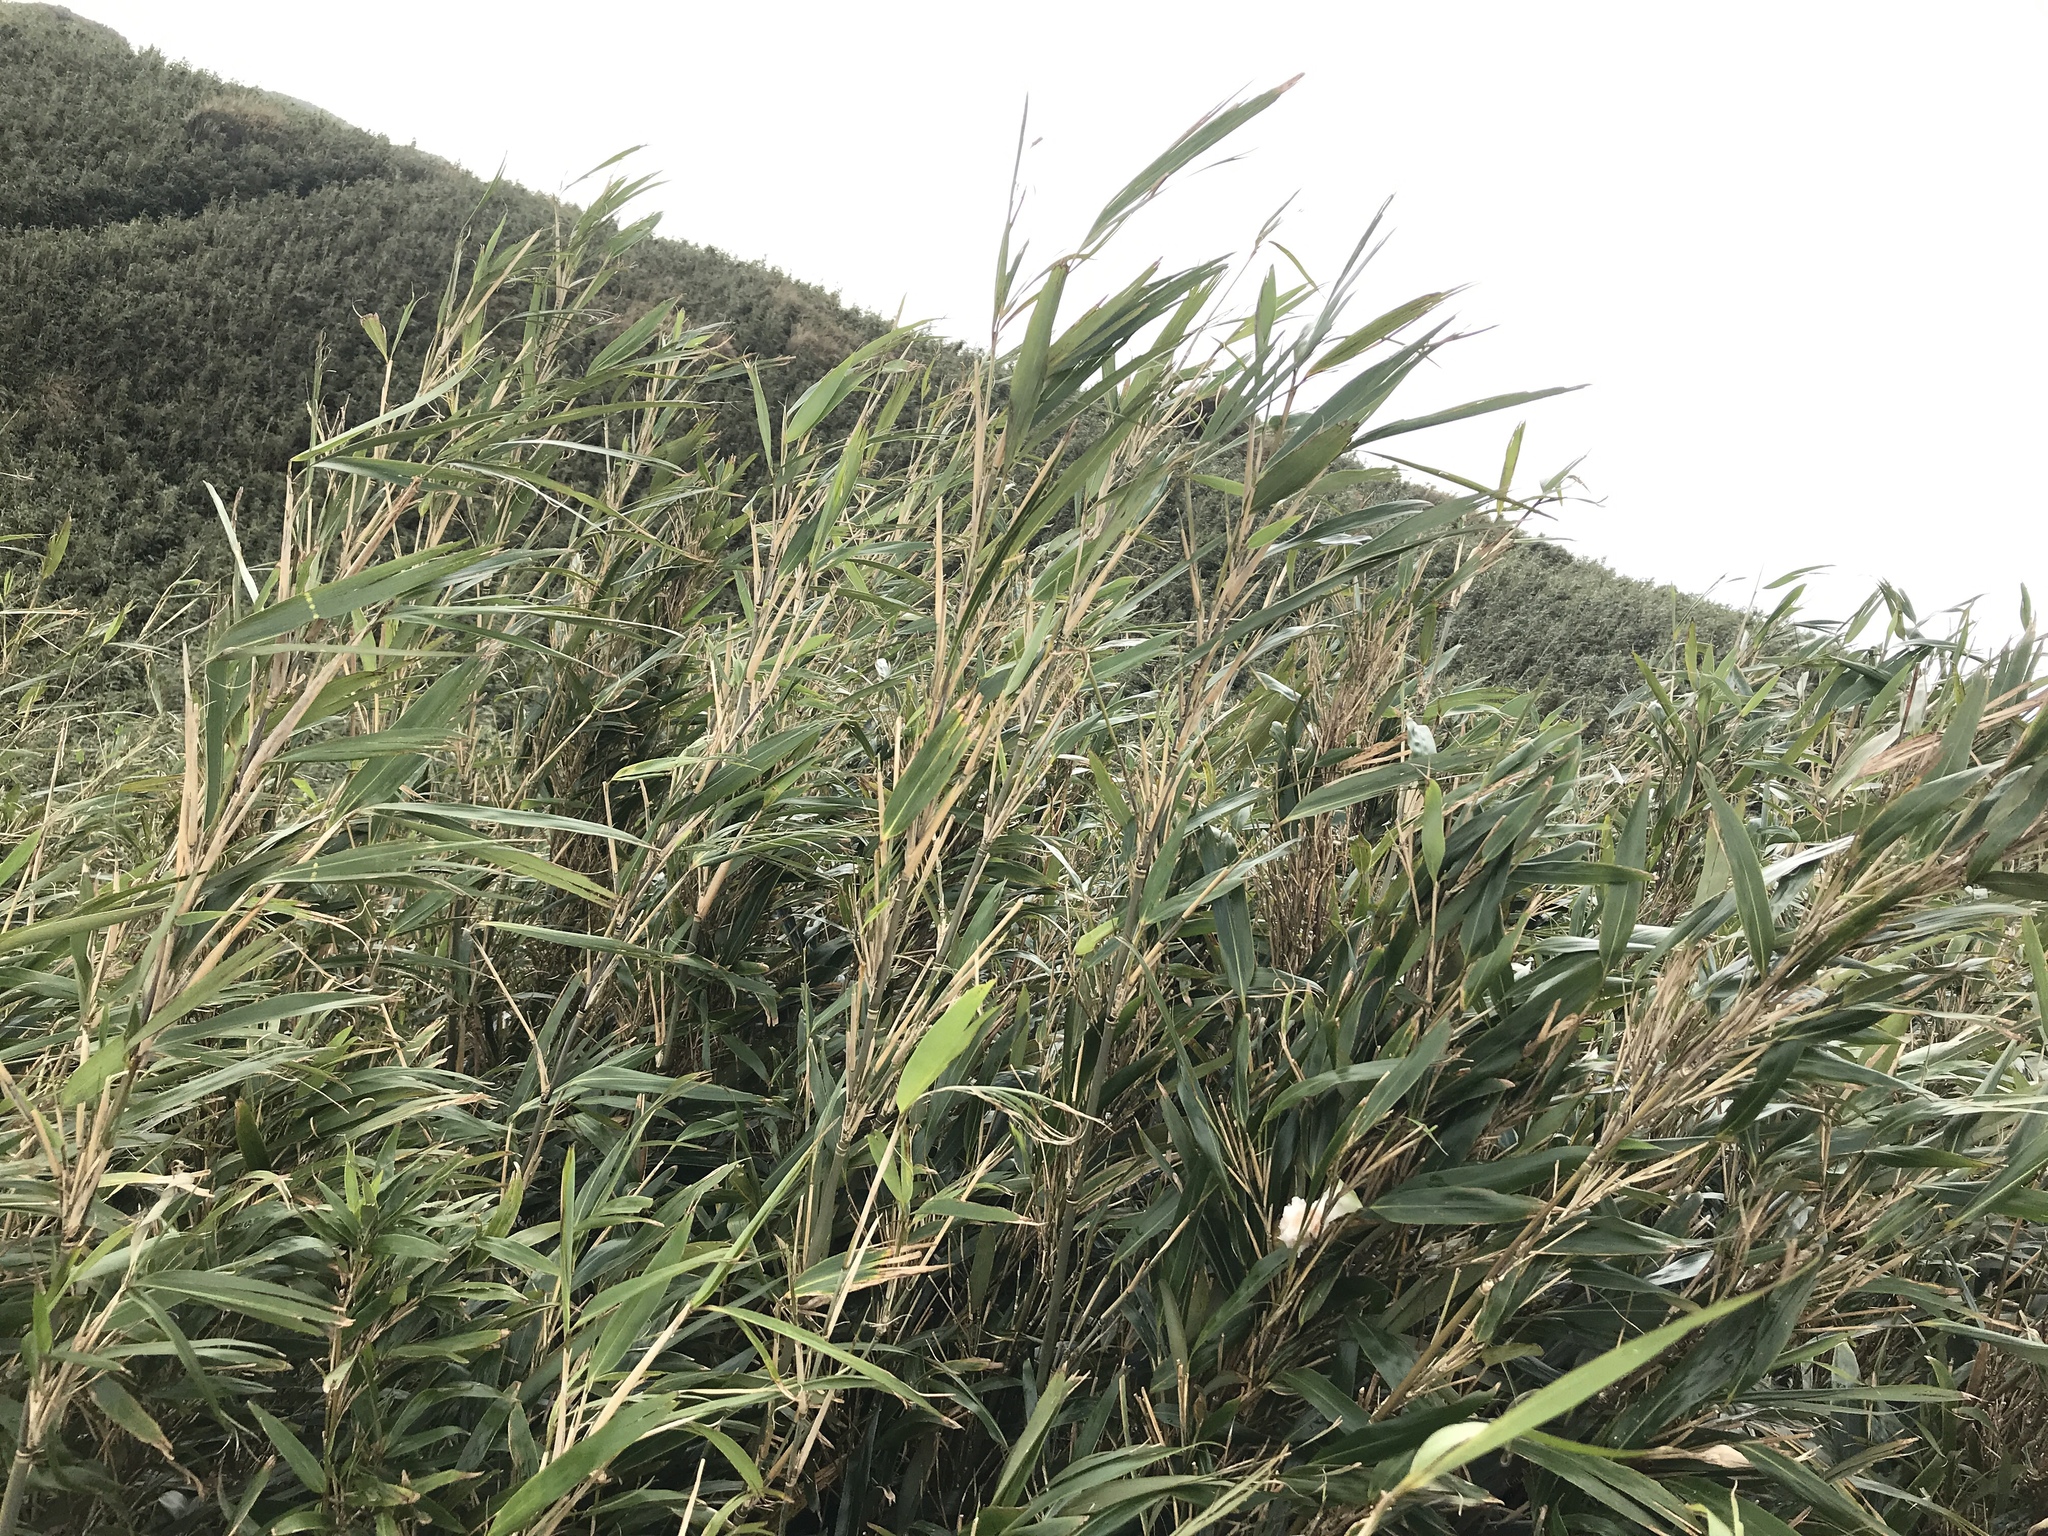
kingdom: Plantae
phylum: Tracheophyta
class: Liliopsida
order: Poales
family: Poaceae
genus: Pseudosasa
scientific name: Pseudosasa japonica
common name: Arrow bamboo
